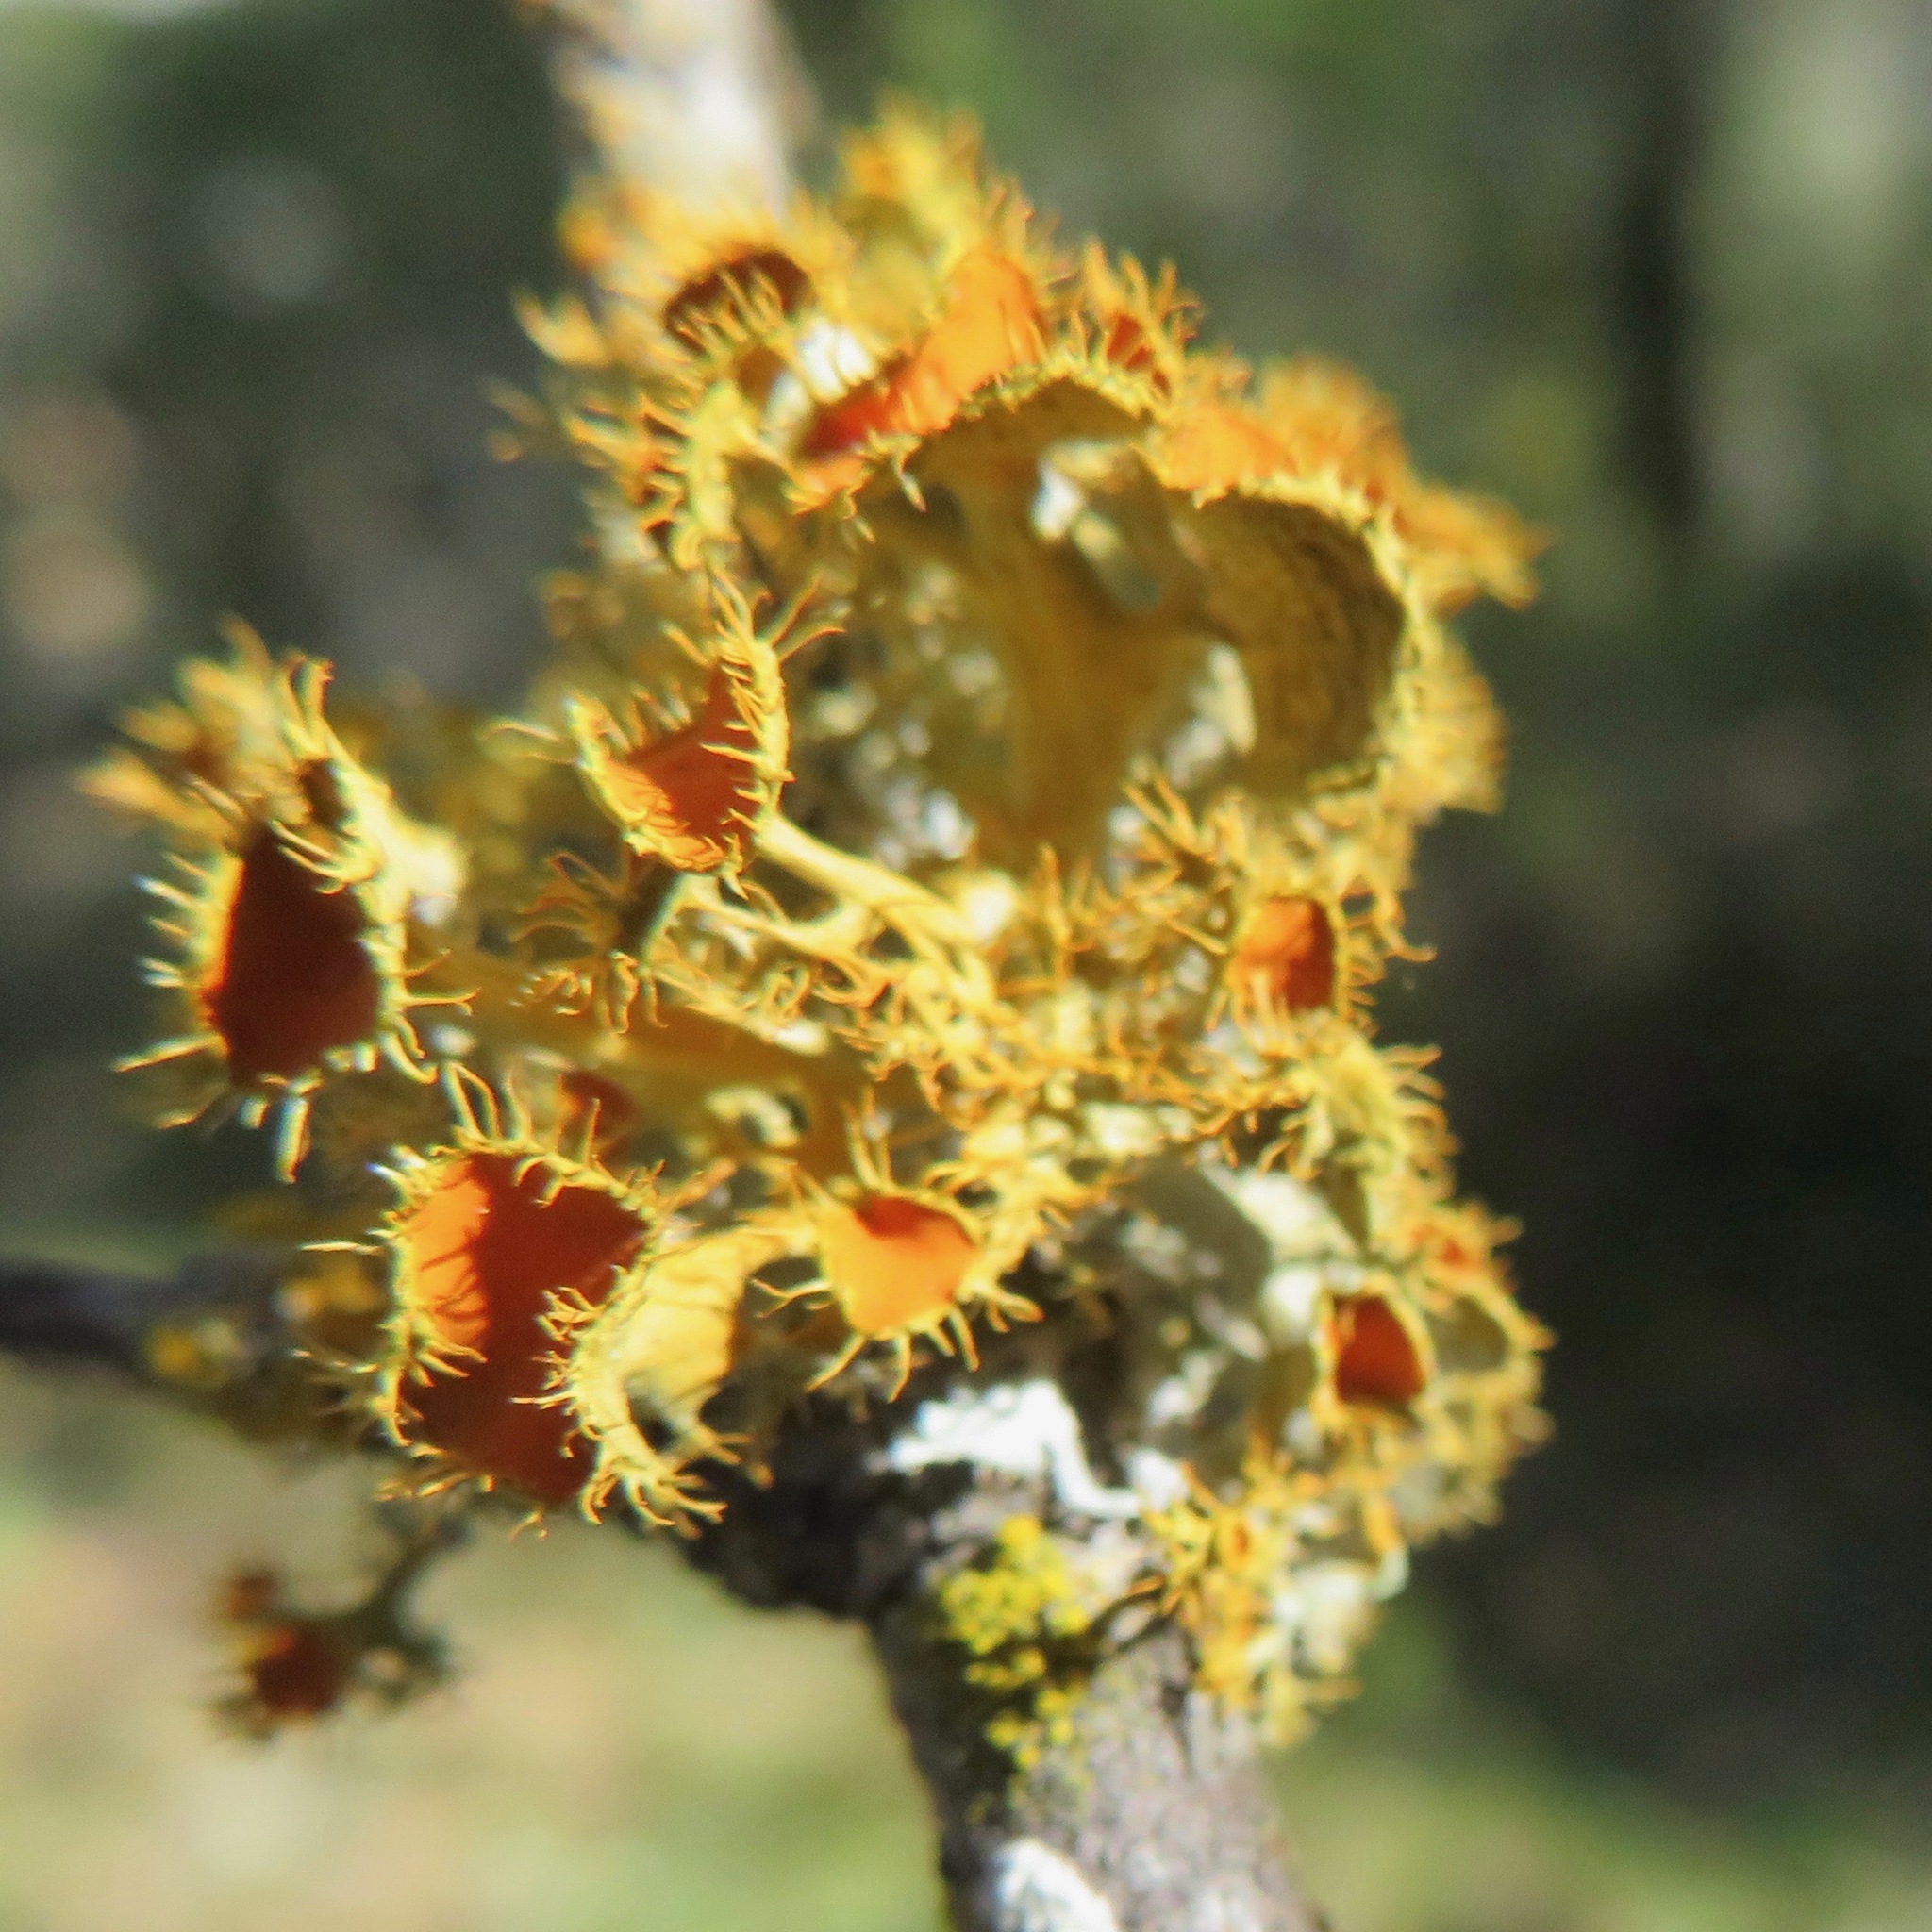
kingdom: Fungi
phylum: Ascomycota
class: Lecanoromycetes
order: Teloschistales
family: Teloschistaceae
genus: Niorma
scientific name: Niorma chrysophthalma
